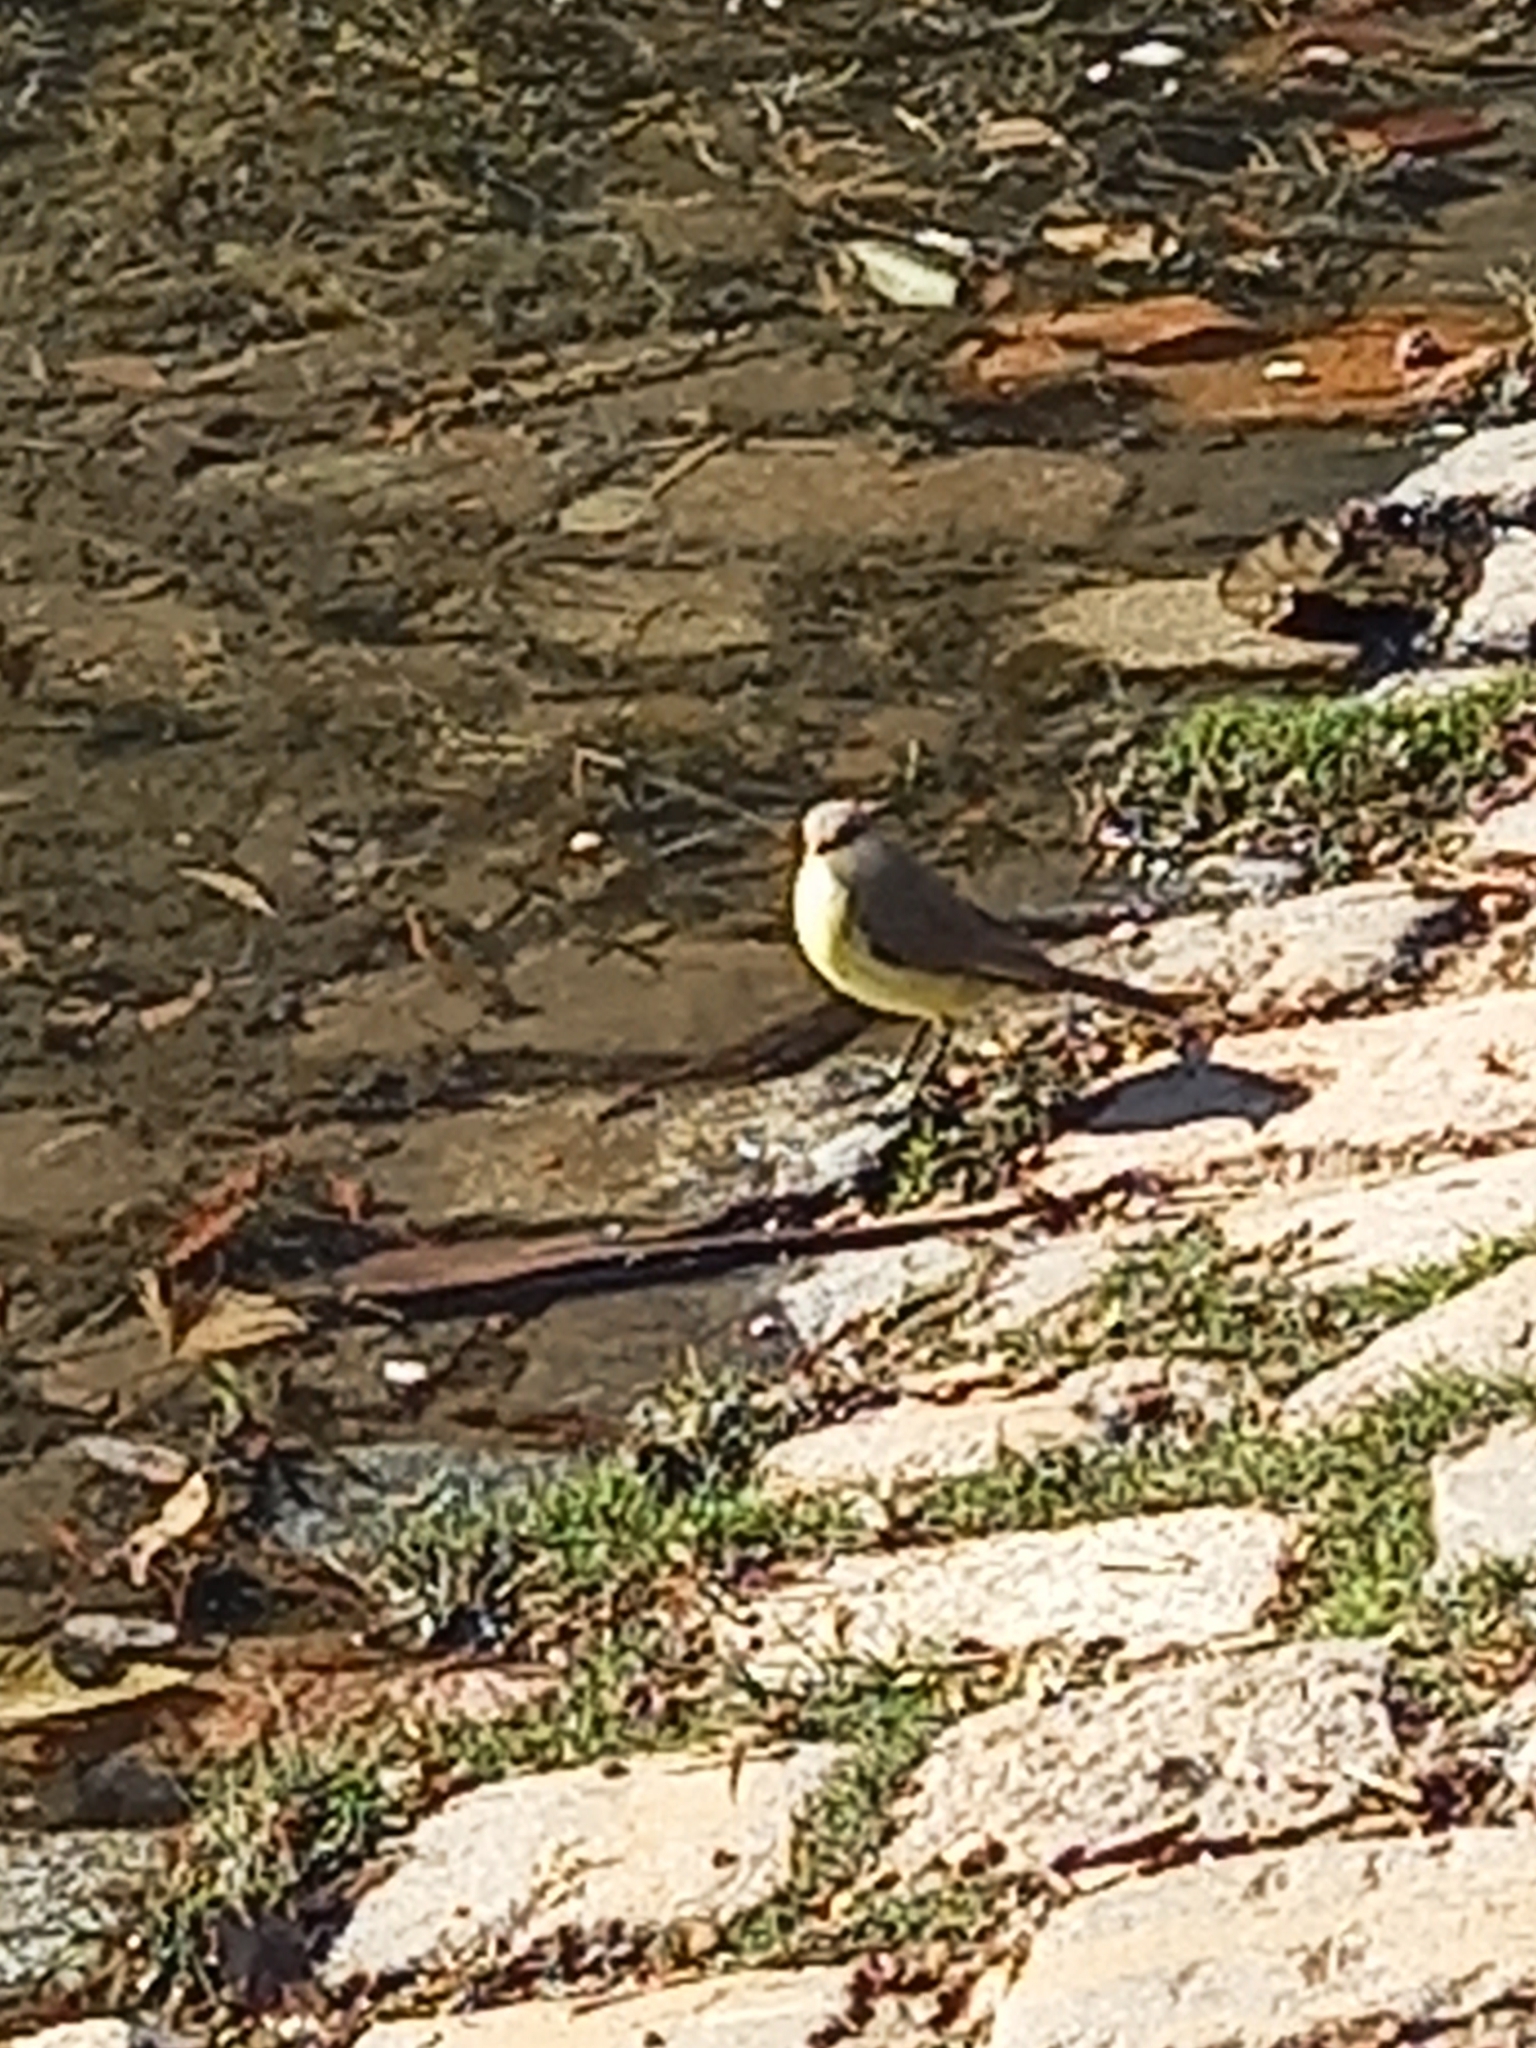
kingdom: Animalia
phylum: Chordata
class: Aves
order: Passeriformes
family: Tyrannidae
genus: Machetornis
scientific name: Machetornis rixosa
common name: Cattle tyrant
